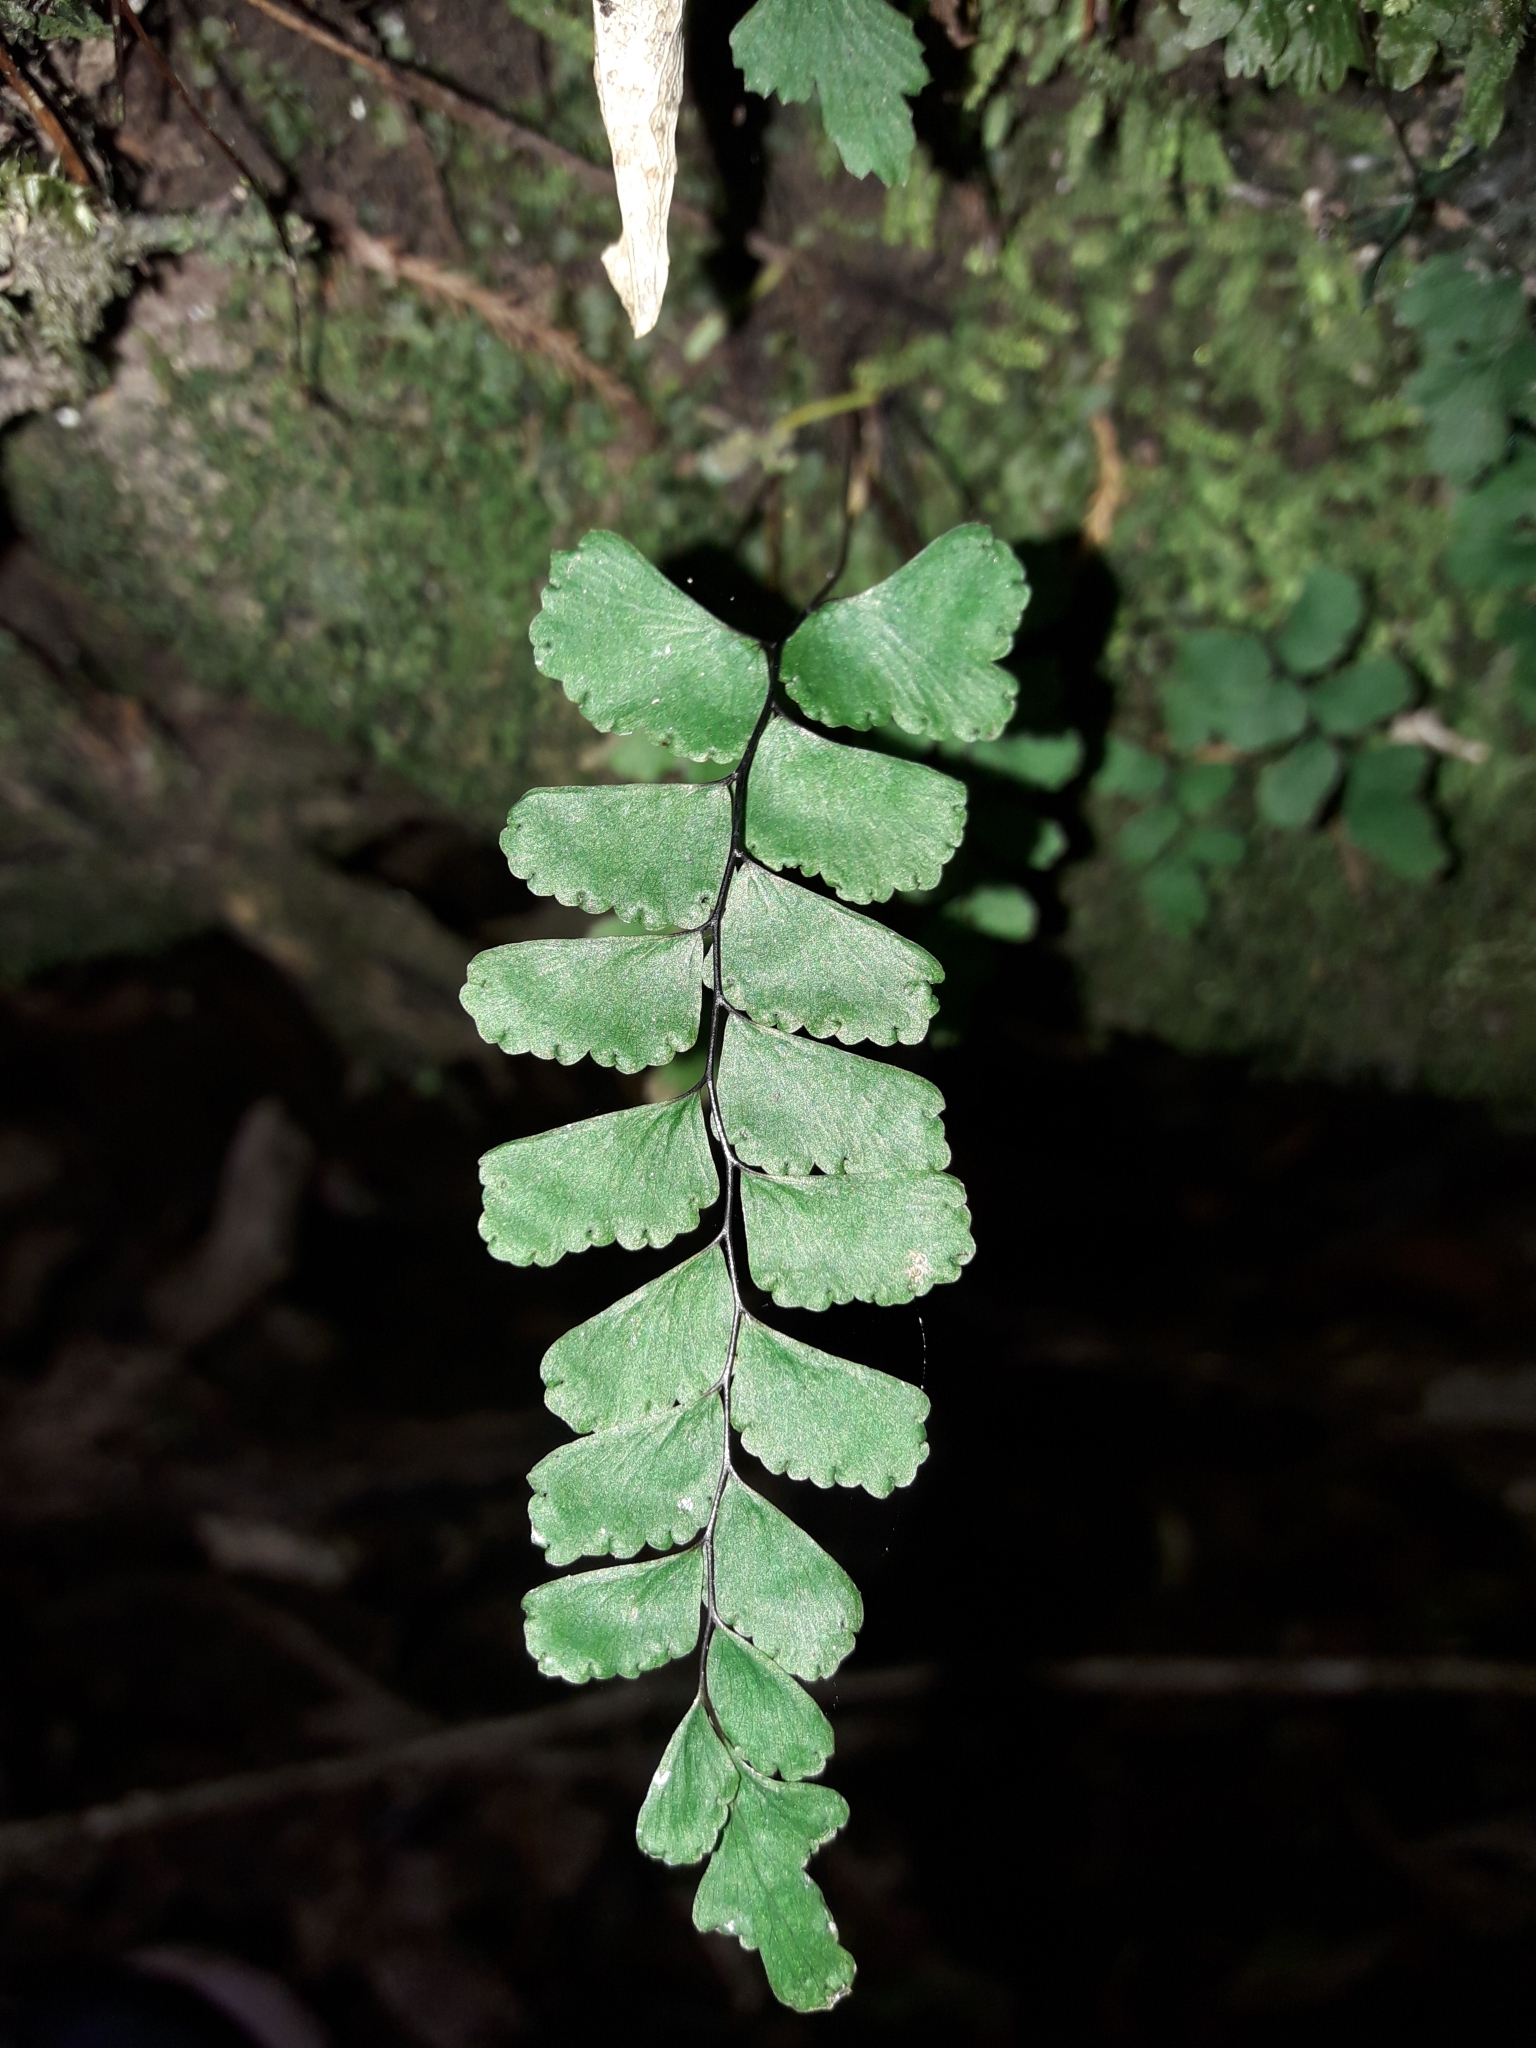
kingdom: Plantae
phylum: Tracheophyta
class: Polypodiopsida
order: Polypodiales
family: Pteridaceae
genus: Adiantum
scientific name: Adiantum diaphanum
